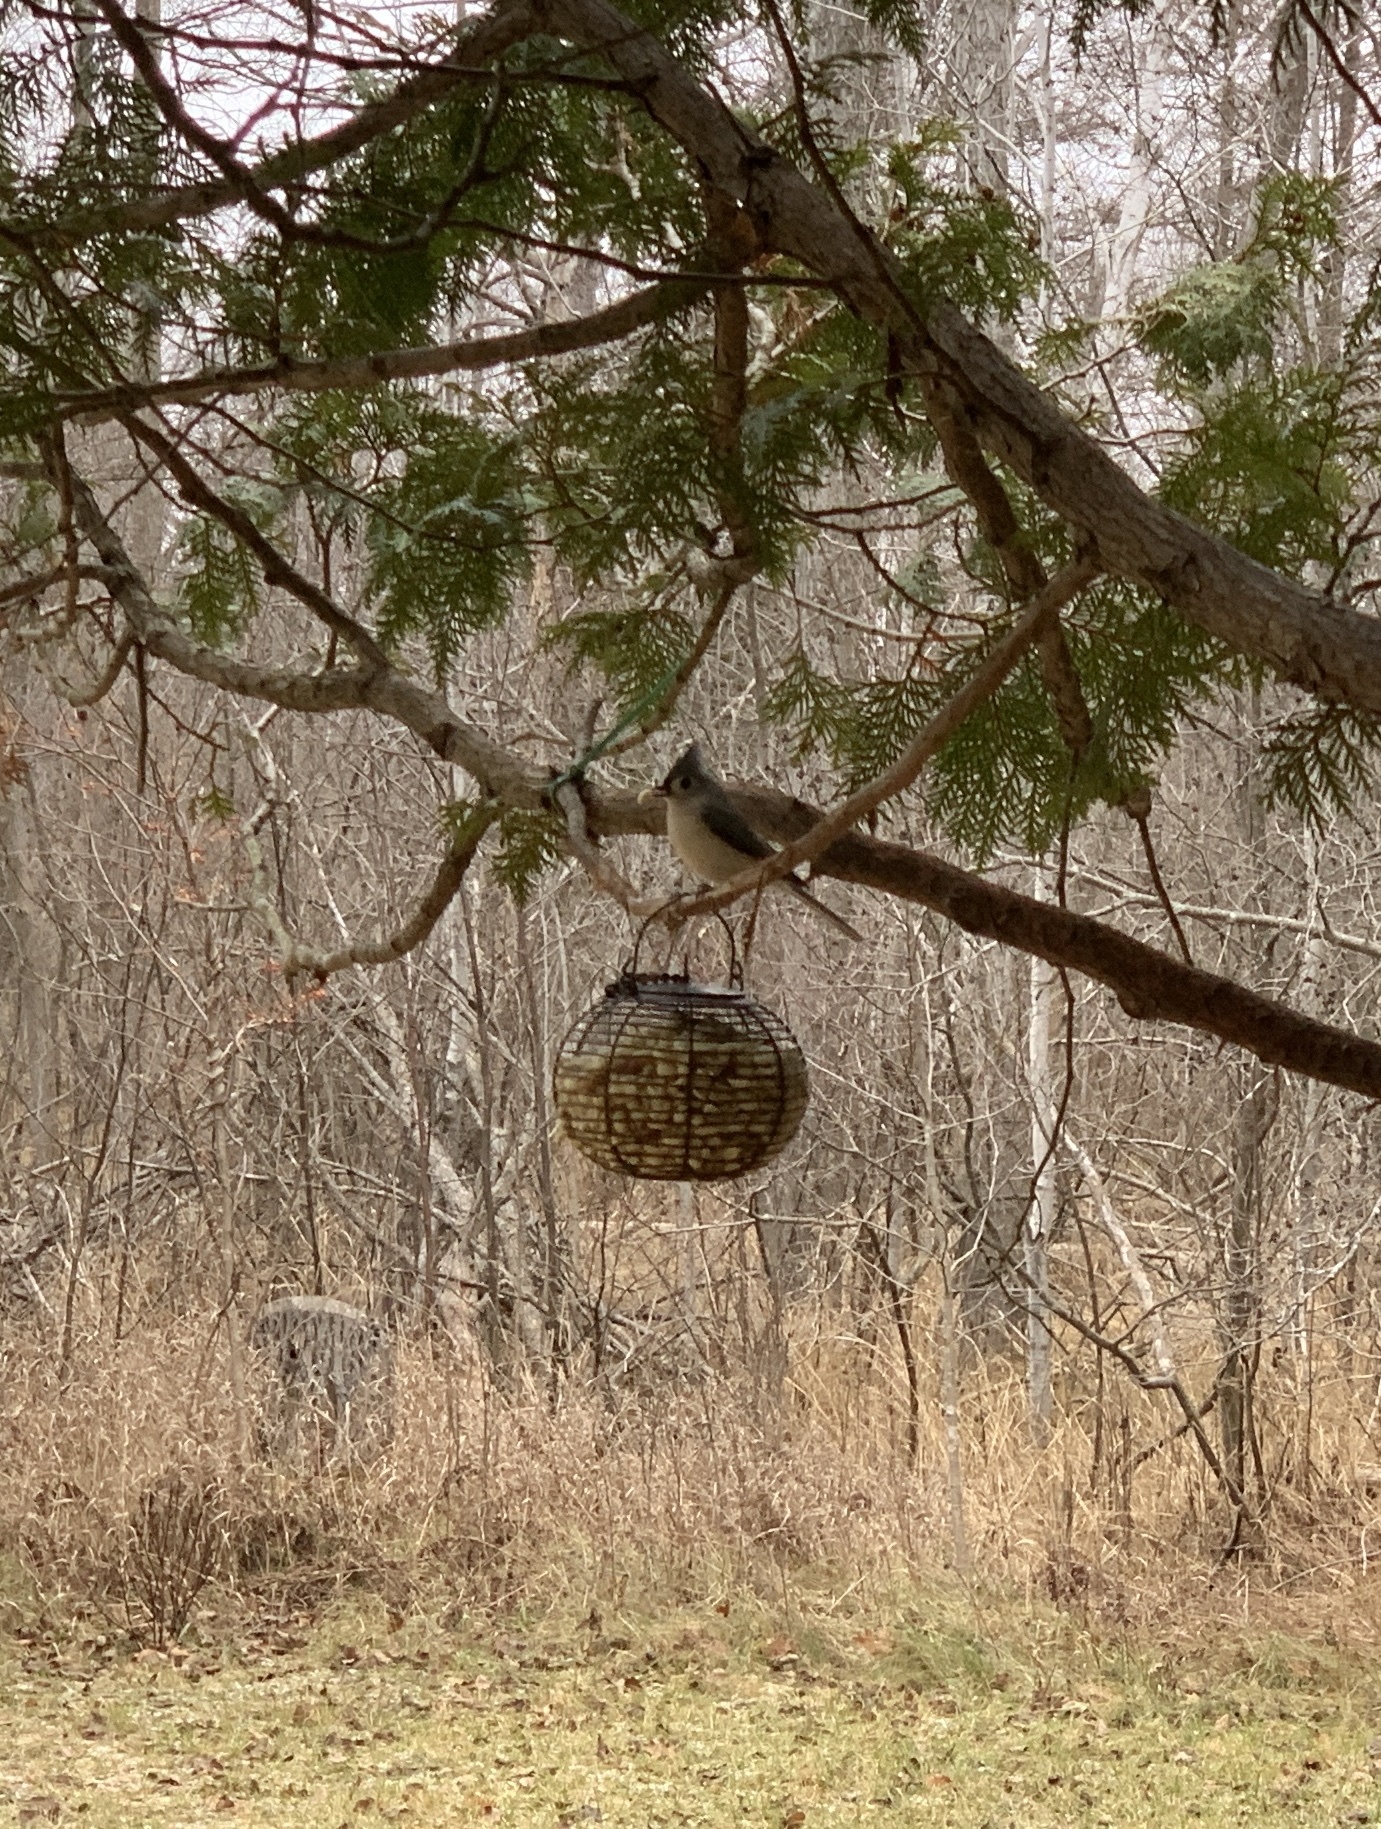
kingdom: Animalia
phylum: Chordata
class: Aves
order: Passeriformes
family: Paridae
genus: Baeolophus
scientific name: Baeolophus bicolor
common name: Tufted titmouse
